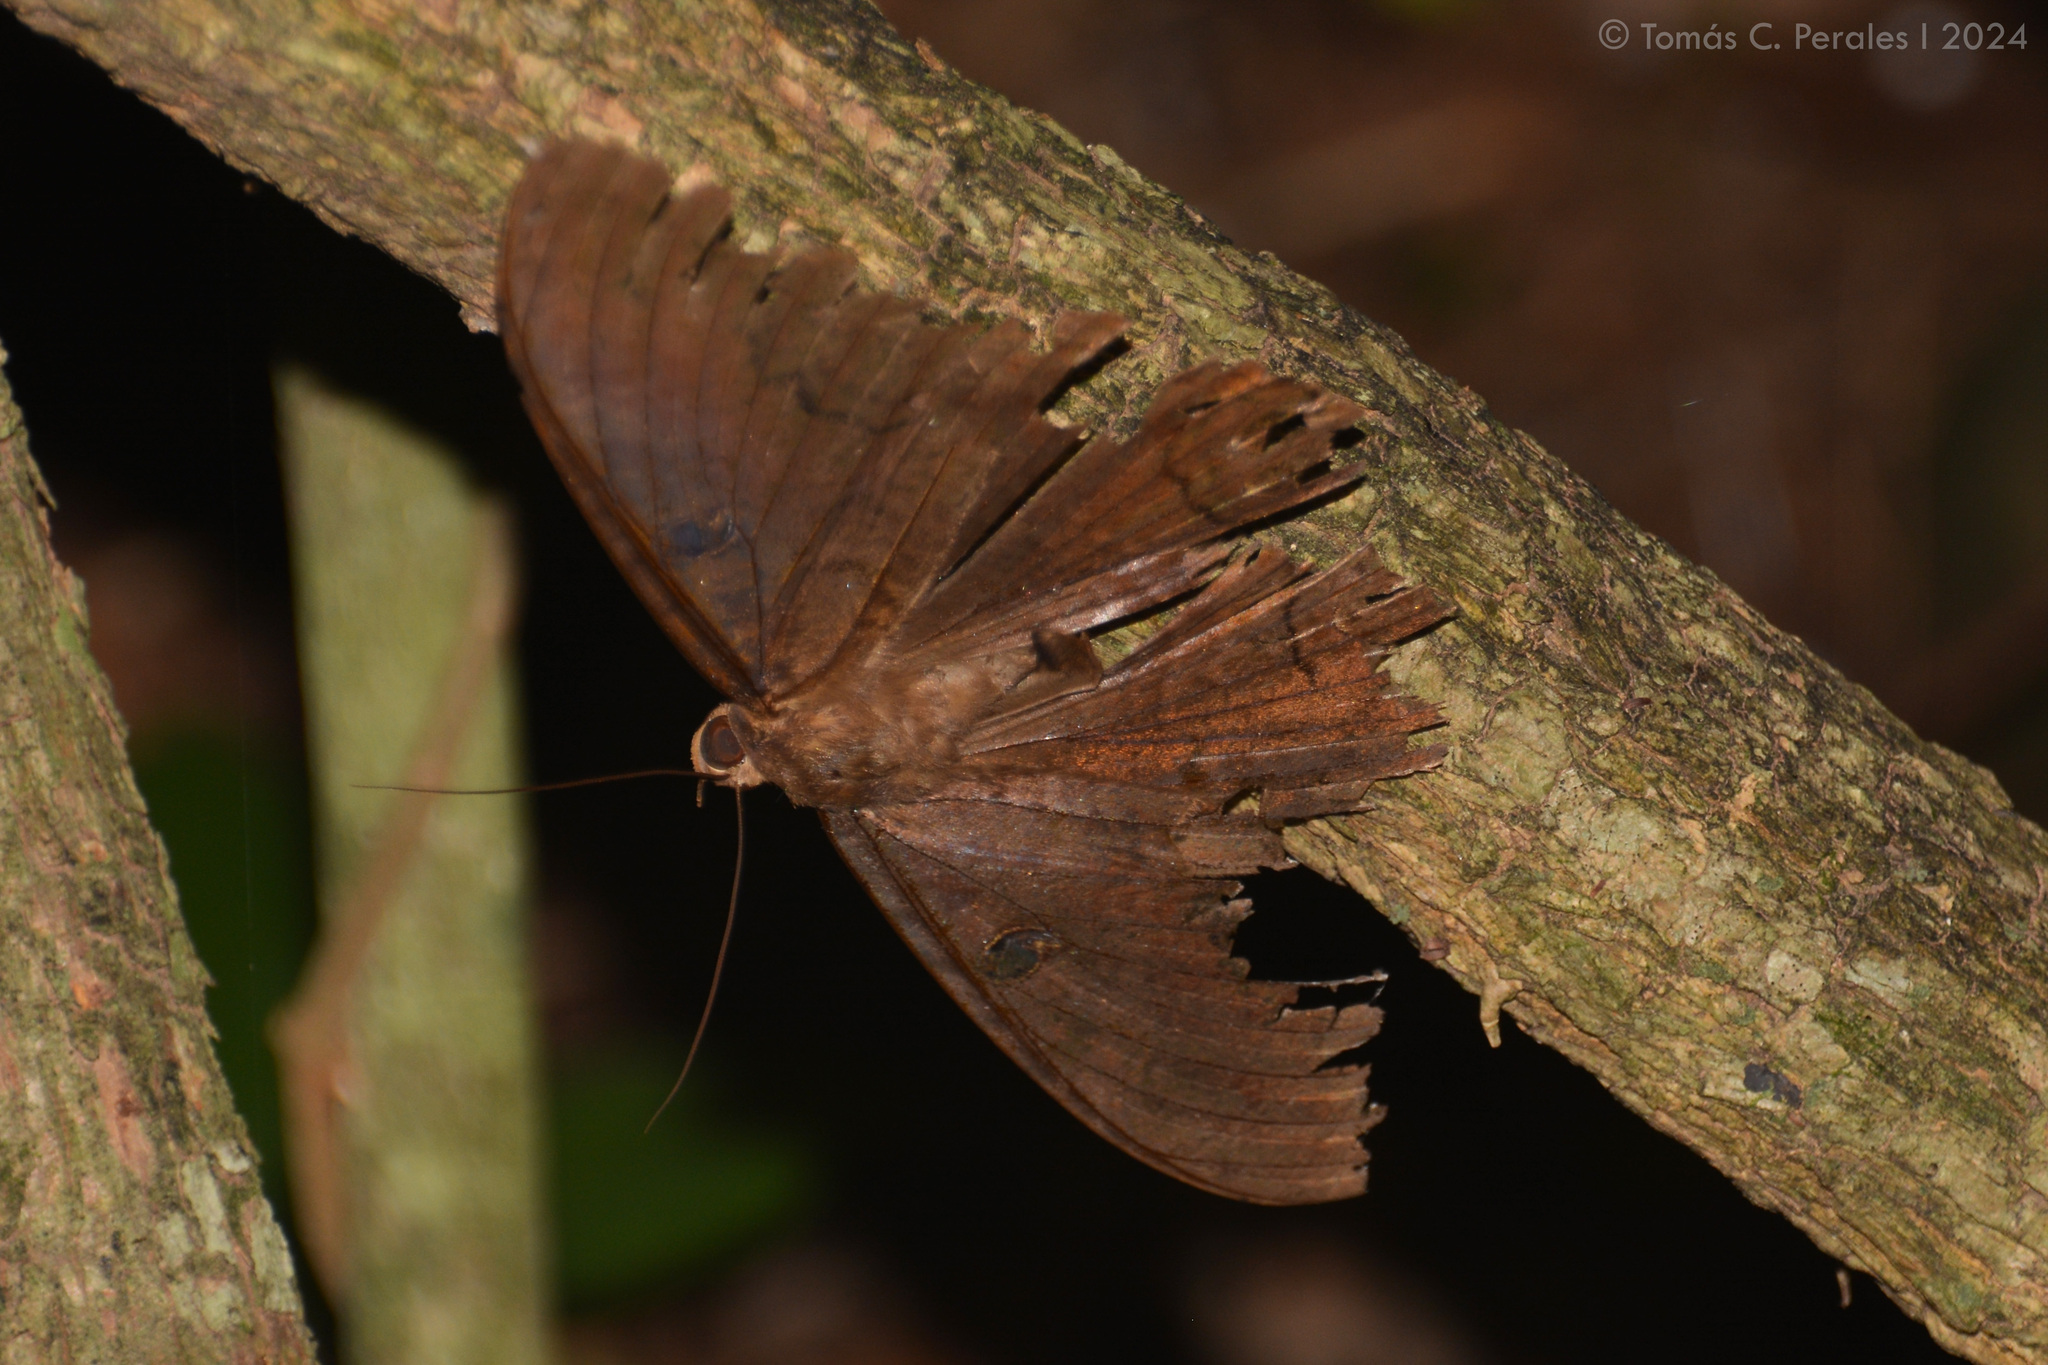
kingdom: Animalia
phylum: Arthropoda
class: Insecta
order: Lepidoptera
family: Erebidae
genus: Ascalapha
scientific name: Ascalapha odorata
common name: Black witch
